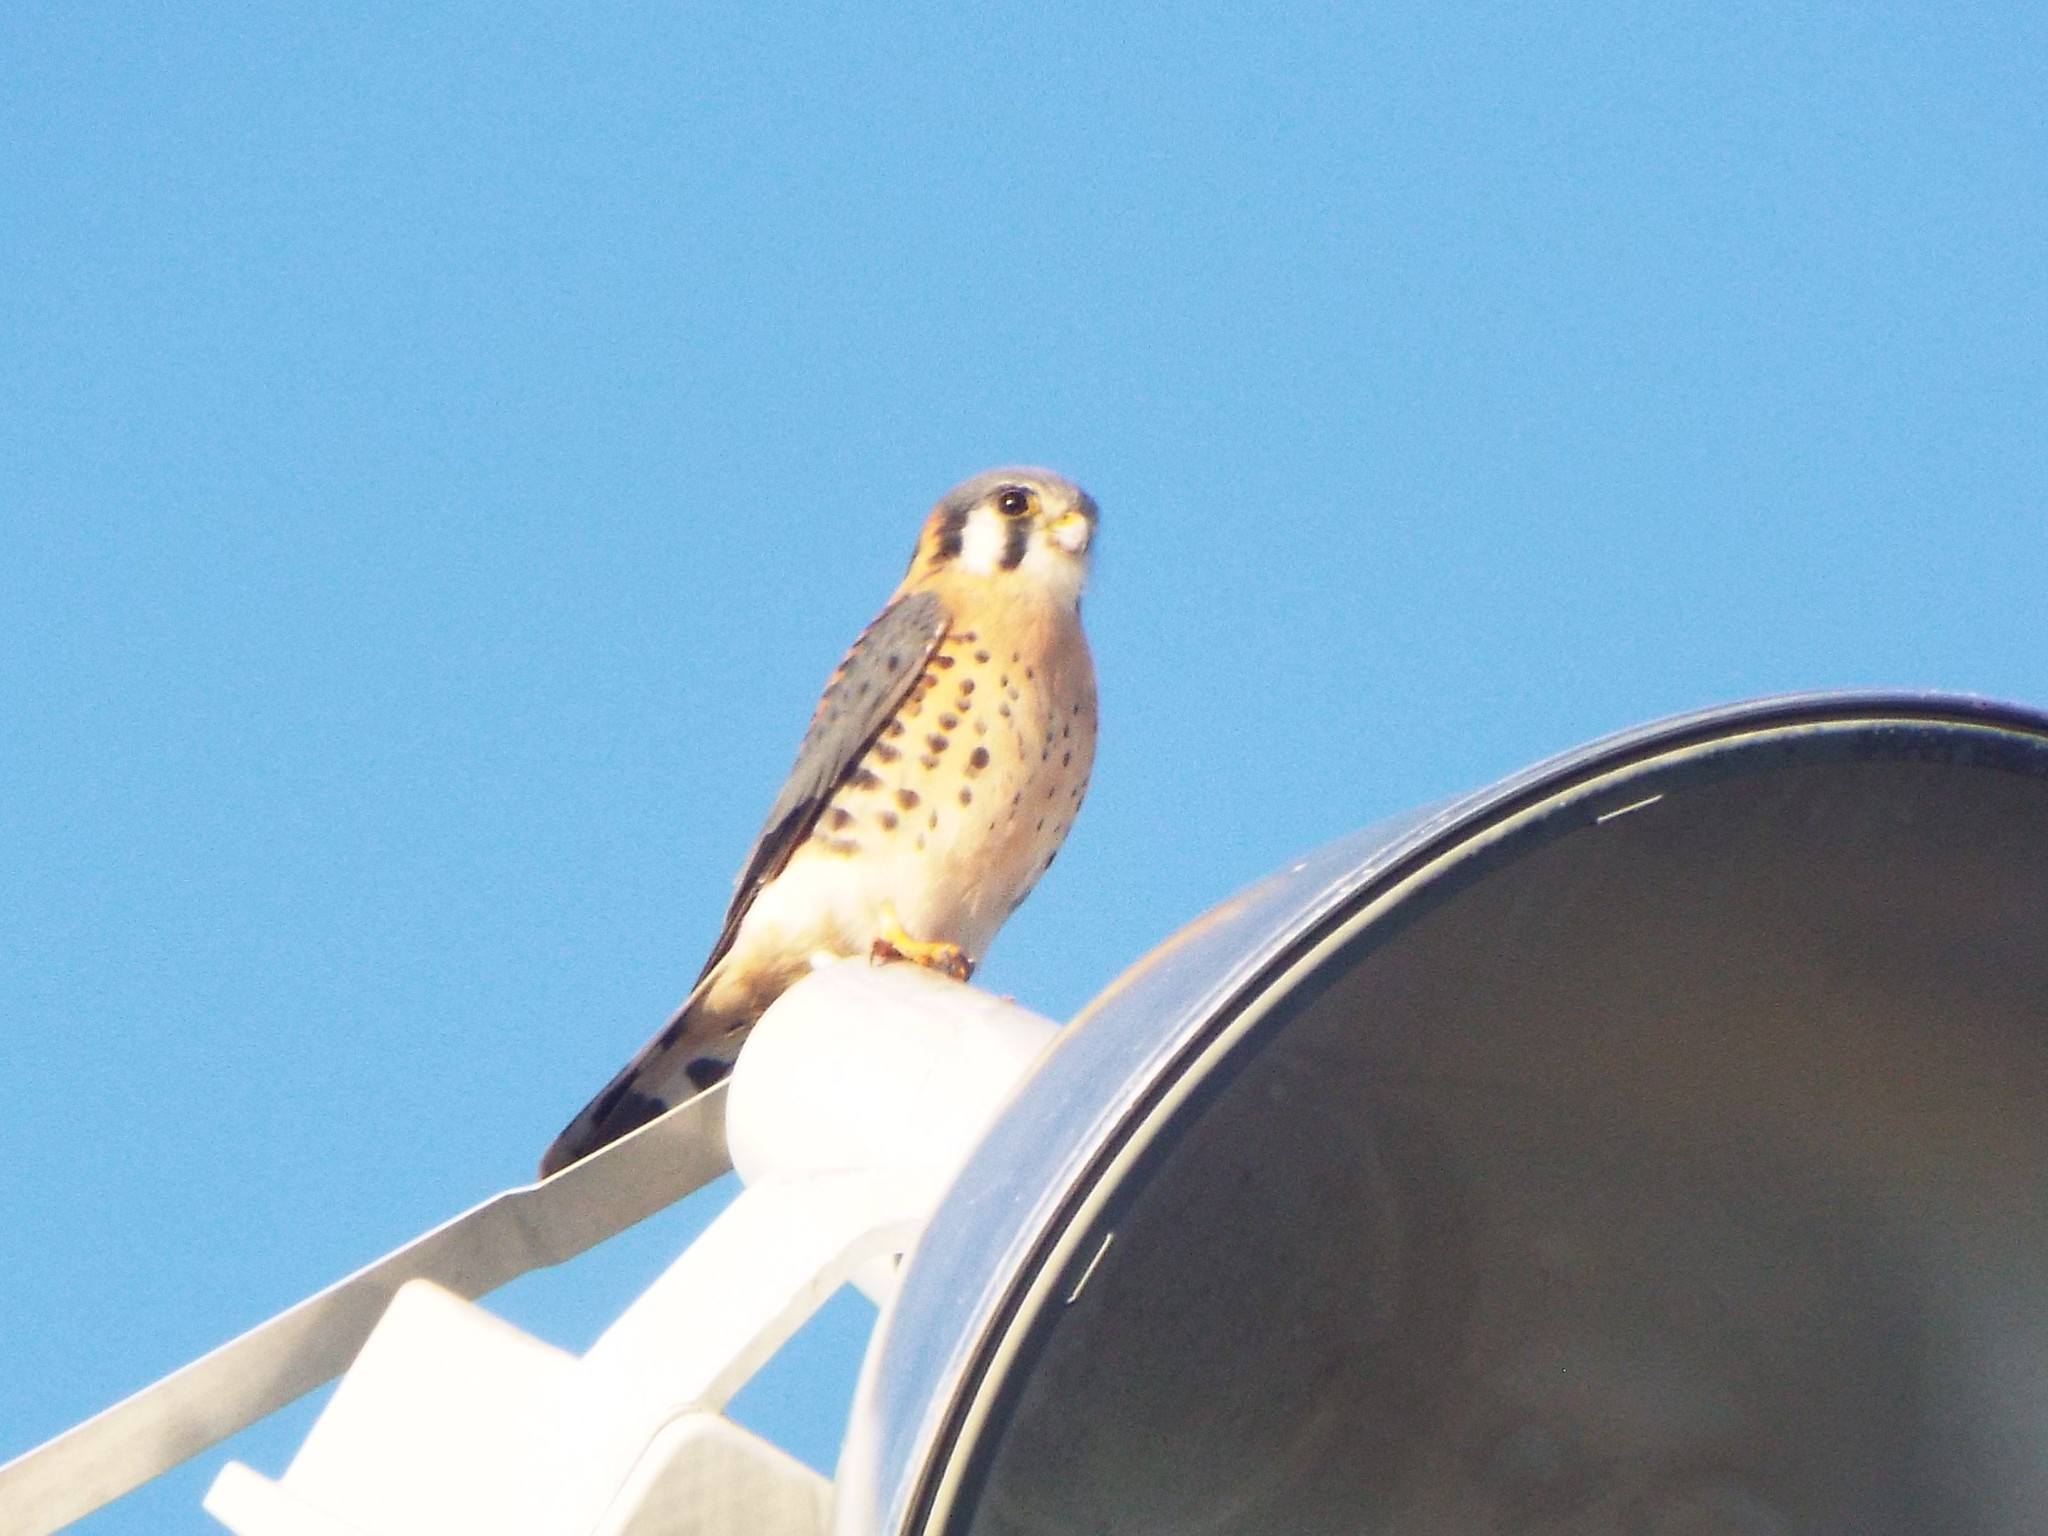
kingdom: Animalia
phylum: Chordata
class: Aves
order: Falconiformes
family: Falconidae
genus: Falco
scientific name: Falco sparverius
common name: American kestrel
